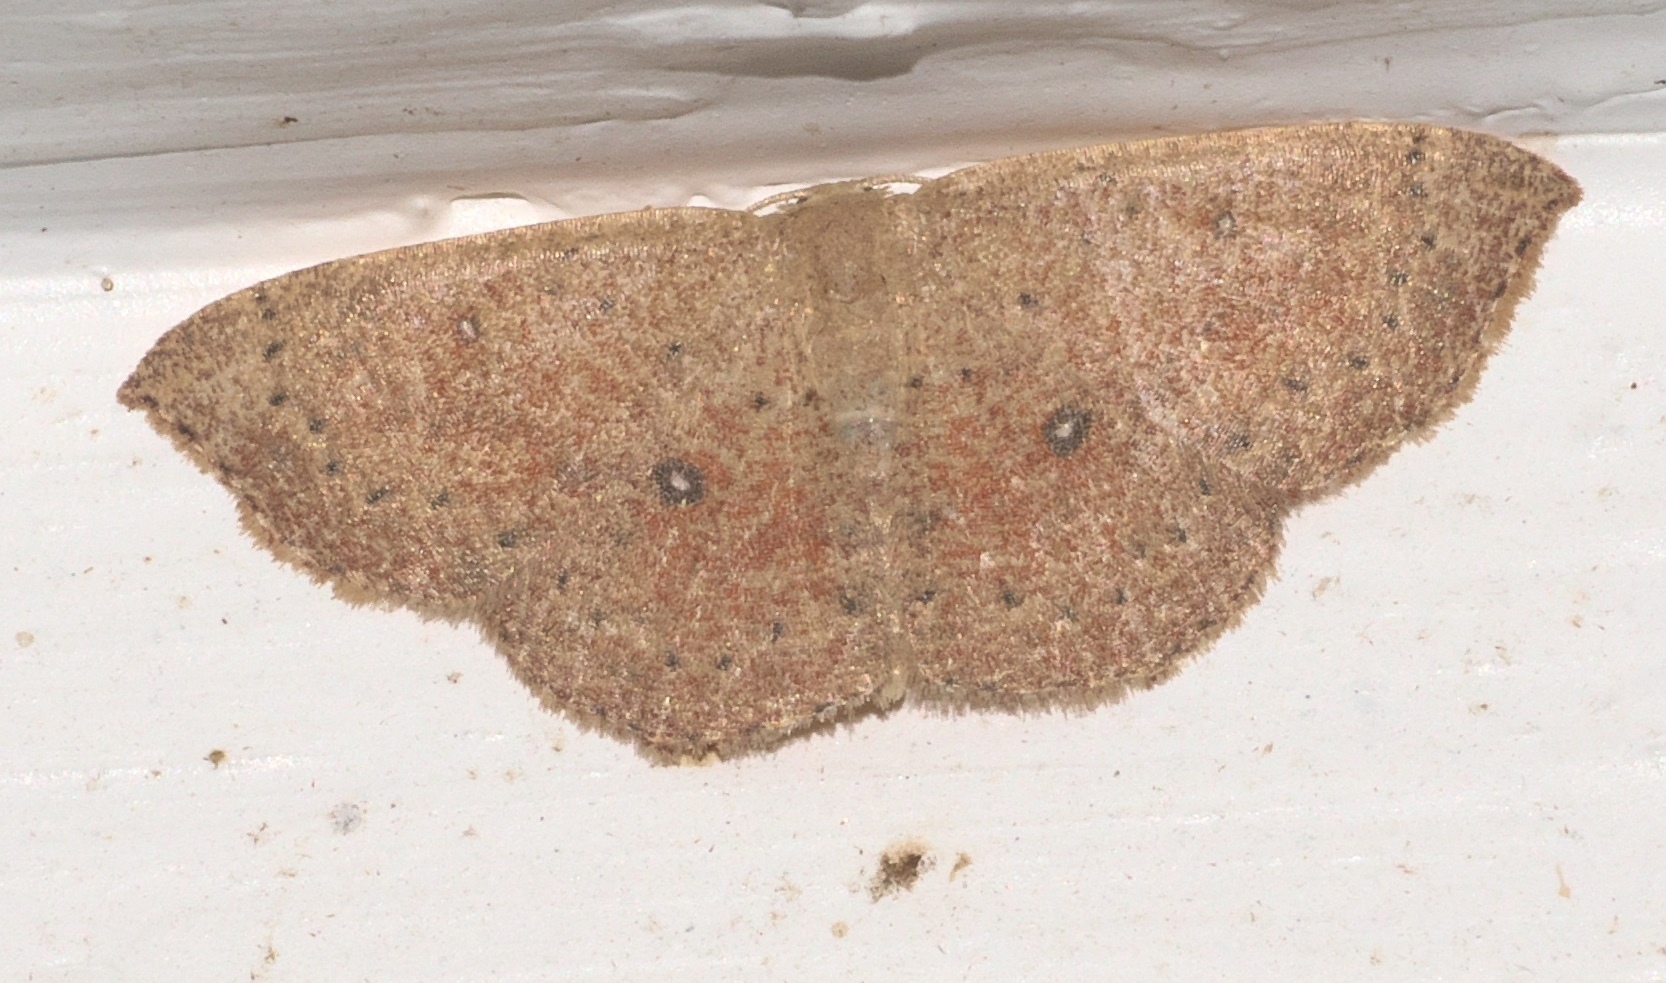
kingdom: Animalia
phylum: Arthropoda
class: Insecta
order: Lepidoptera
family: Geometridae
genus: Cyclophora
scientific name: Cyclophora packardi
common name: Packard's wave
